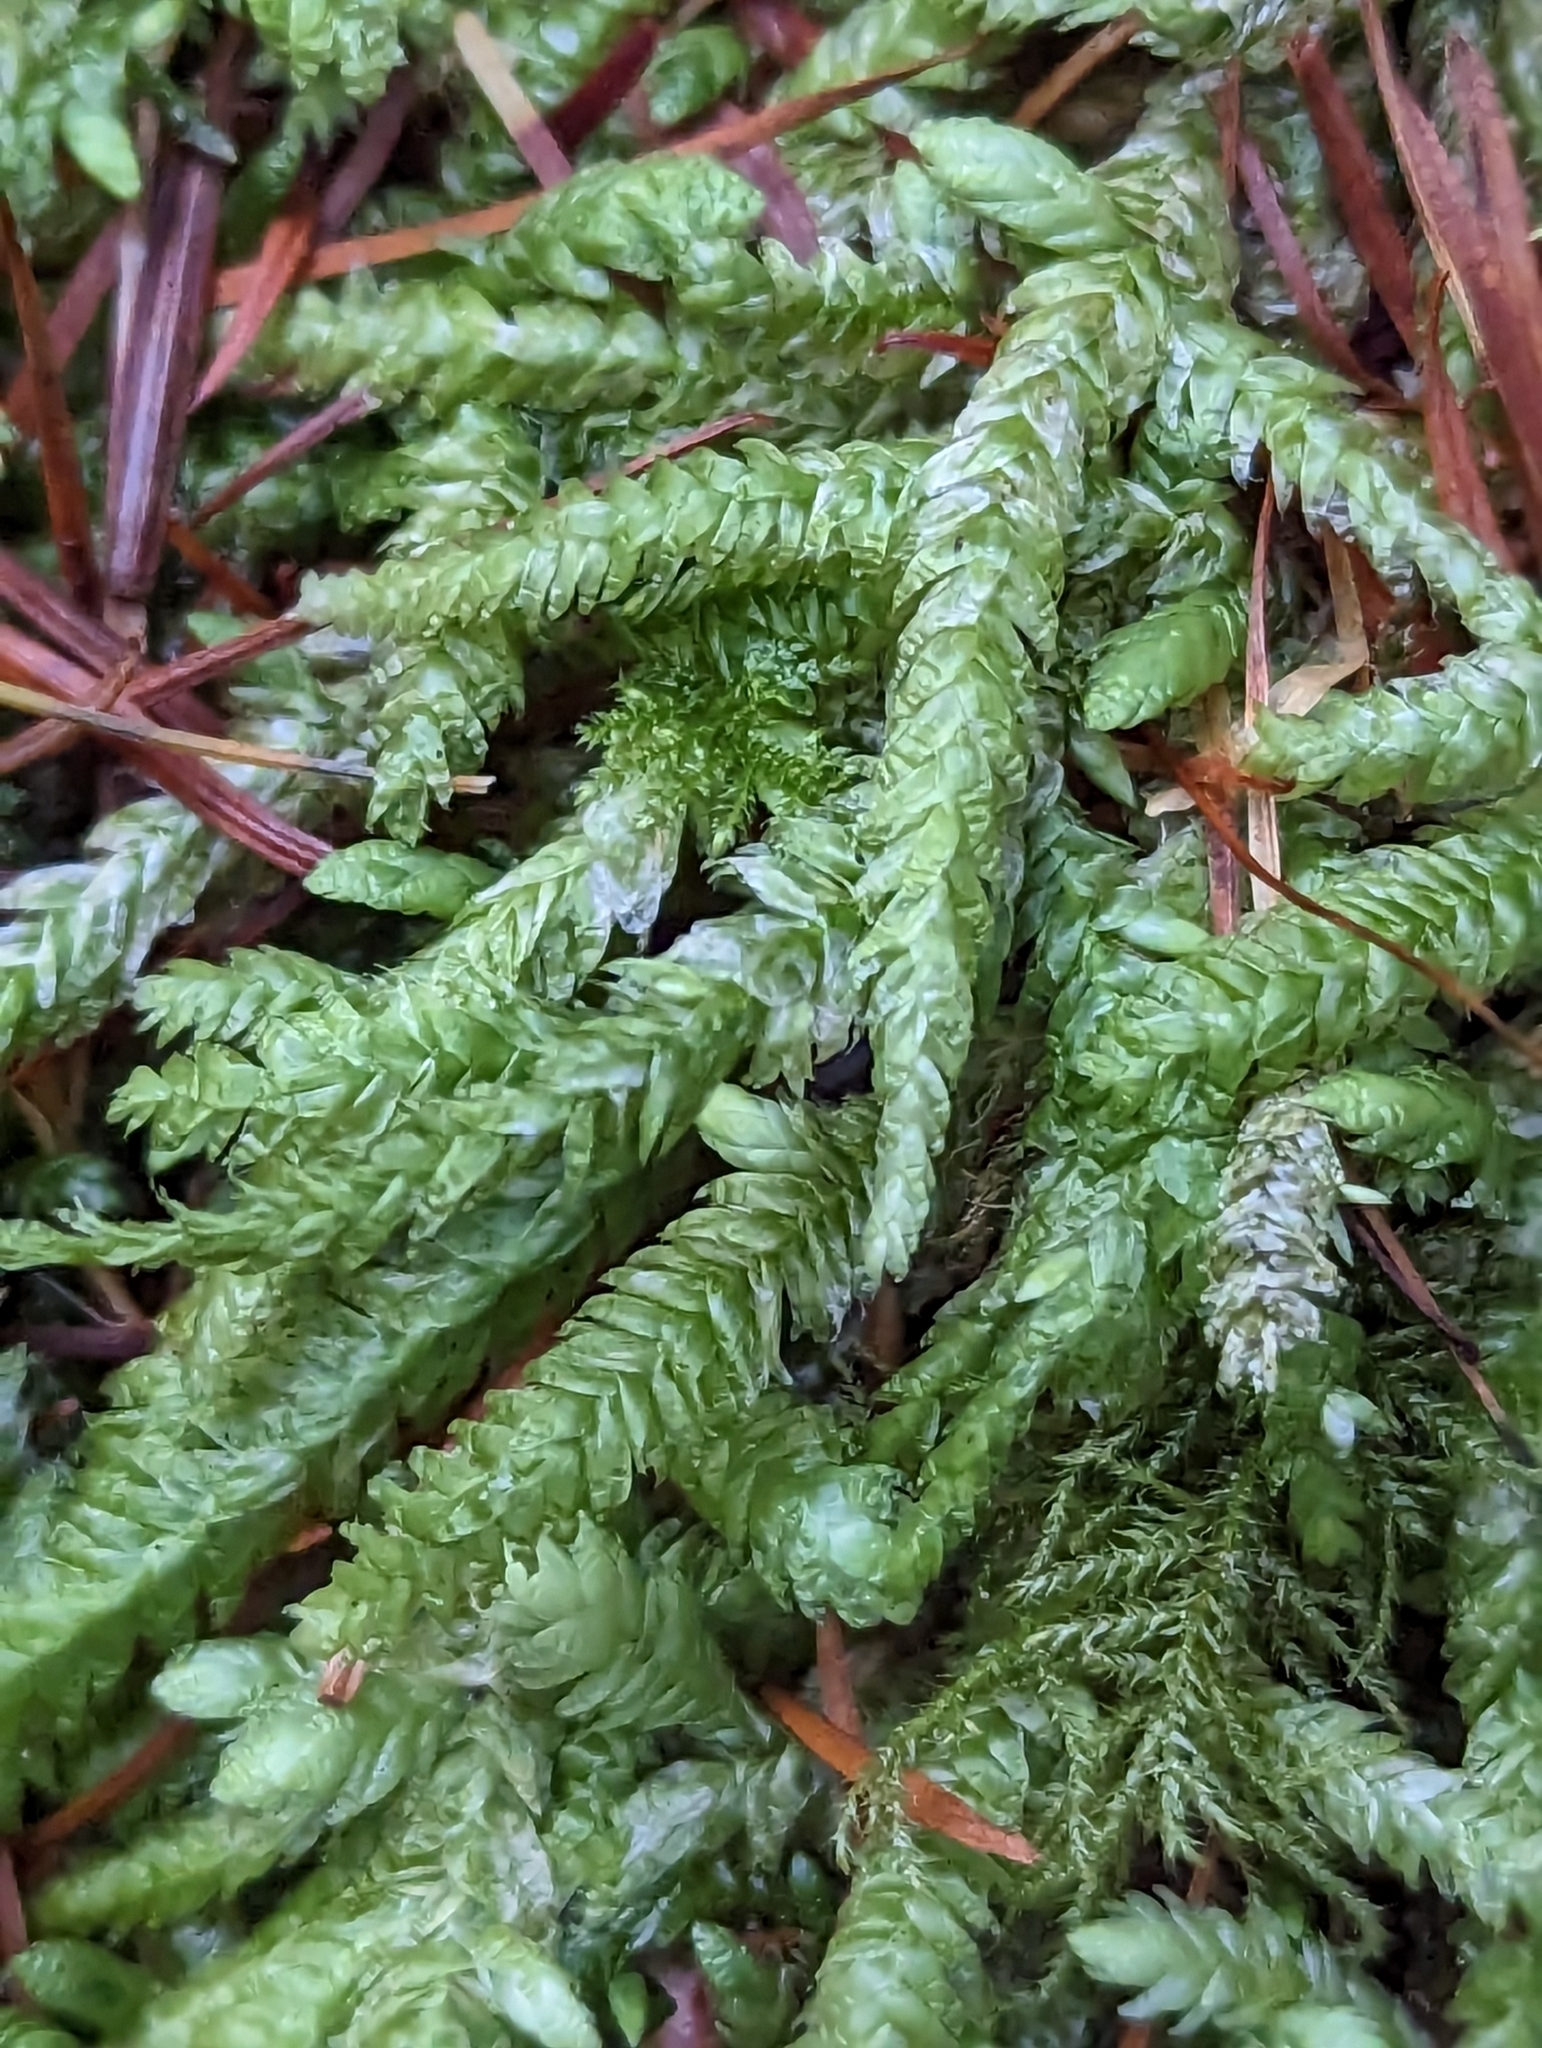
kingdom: Plantae
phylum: Bryophyta
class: Bryopsida
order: Hypnales
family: Plagiotheciaceae
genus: Plagiothecium
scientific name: Plagiothecium undulatum
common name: Waved silk-moss
